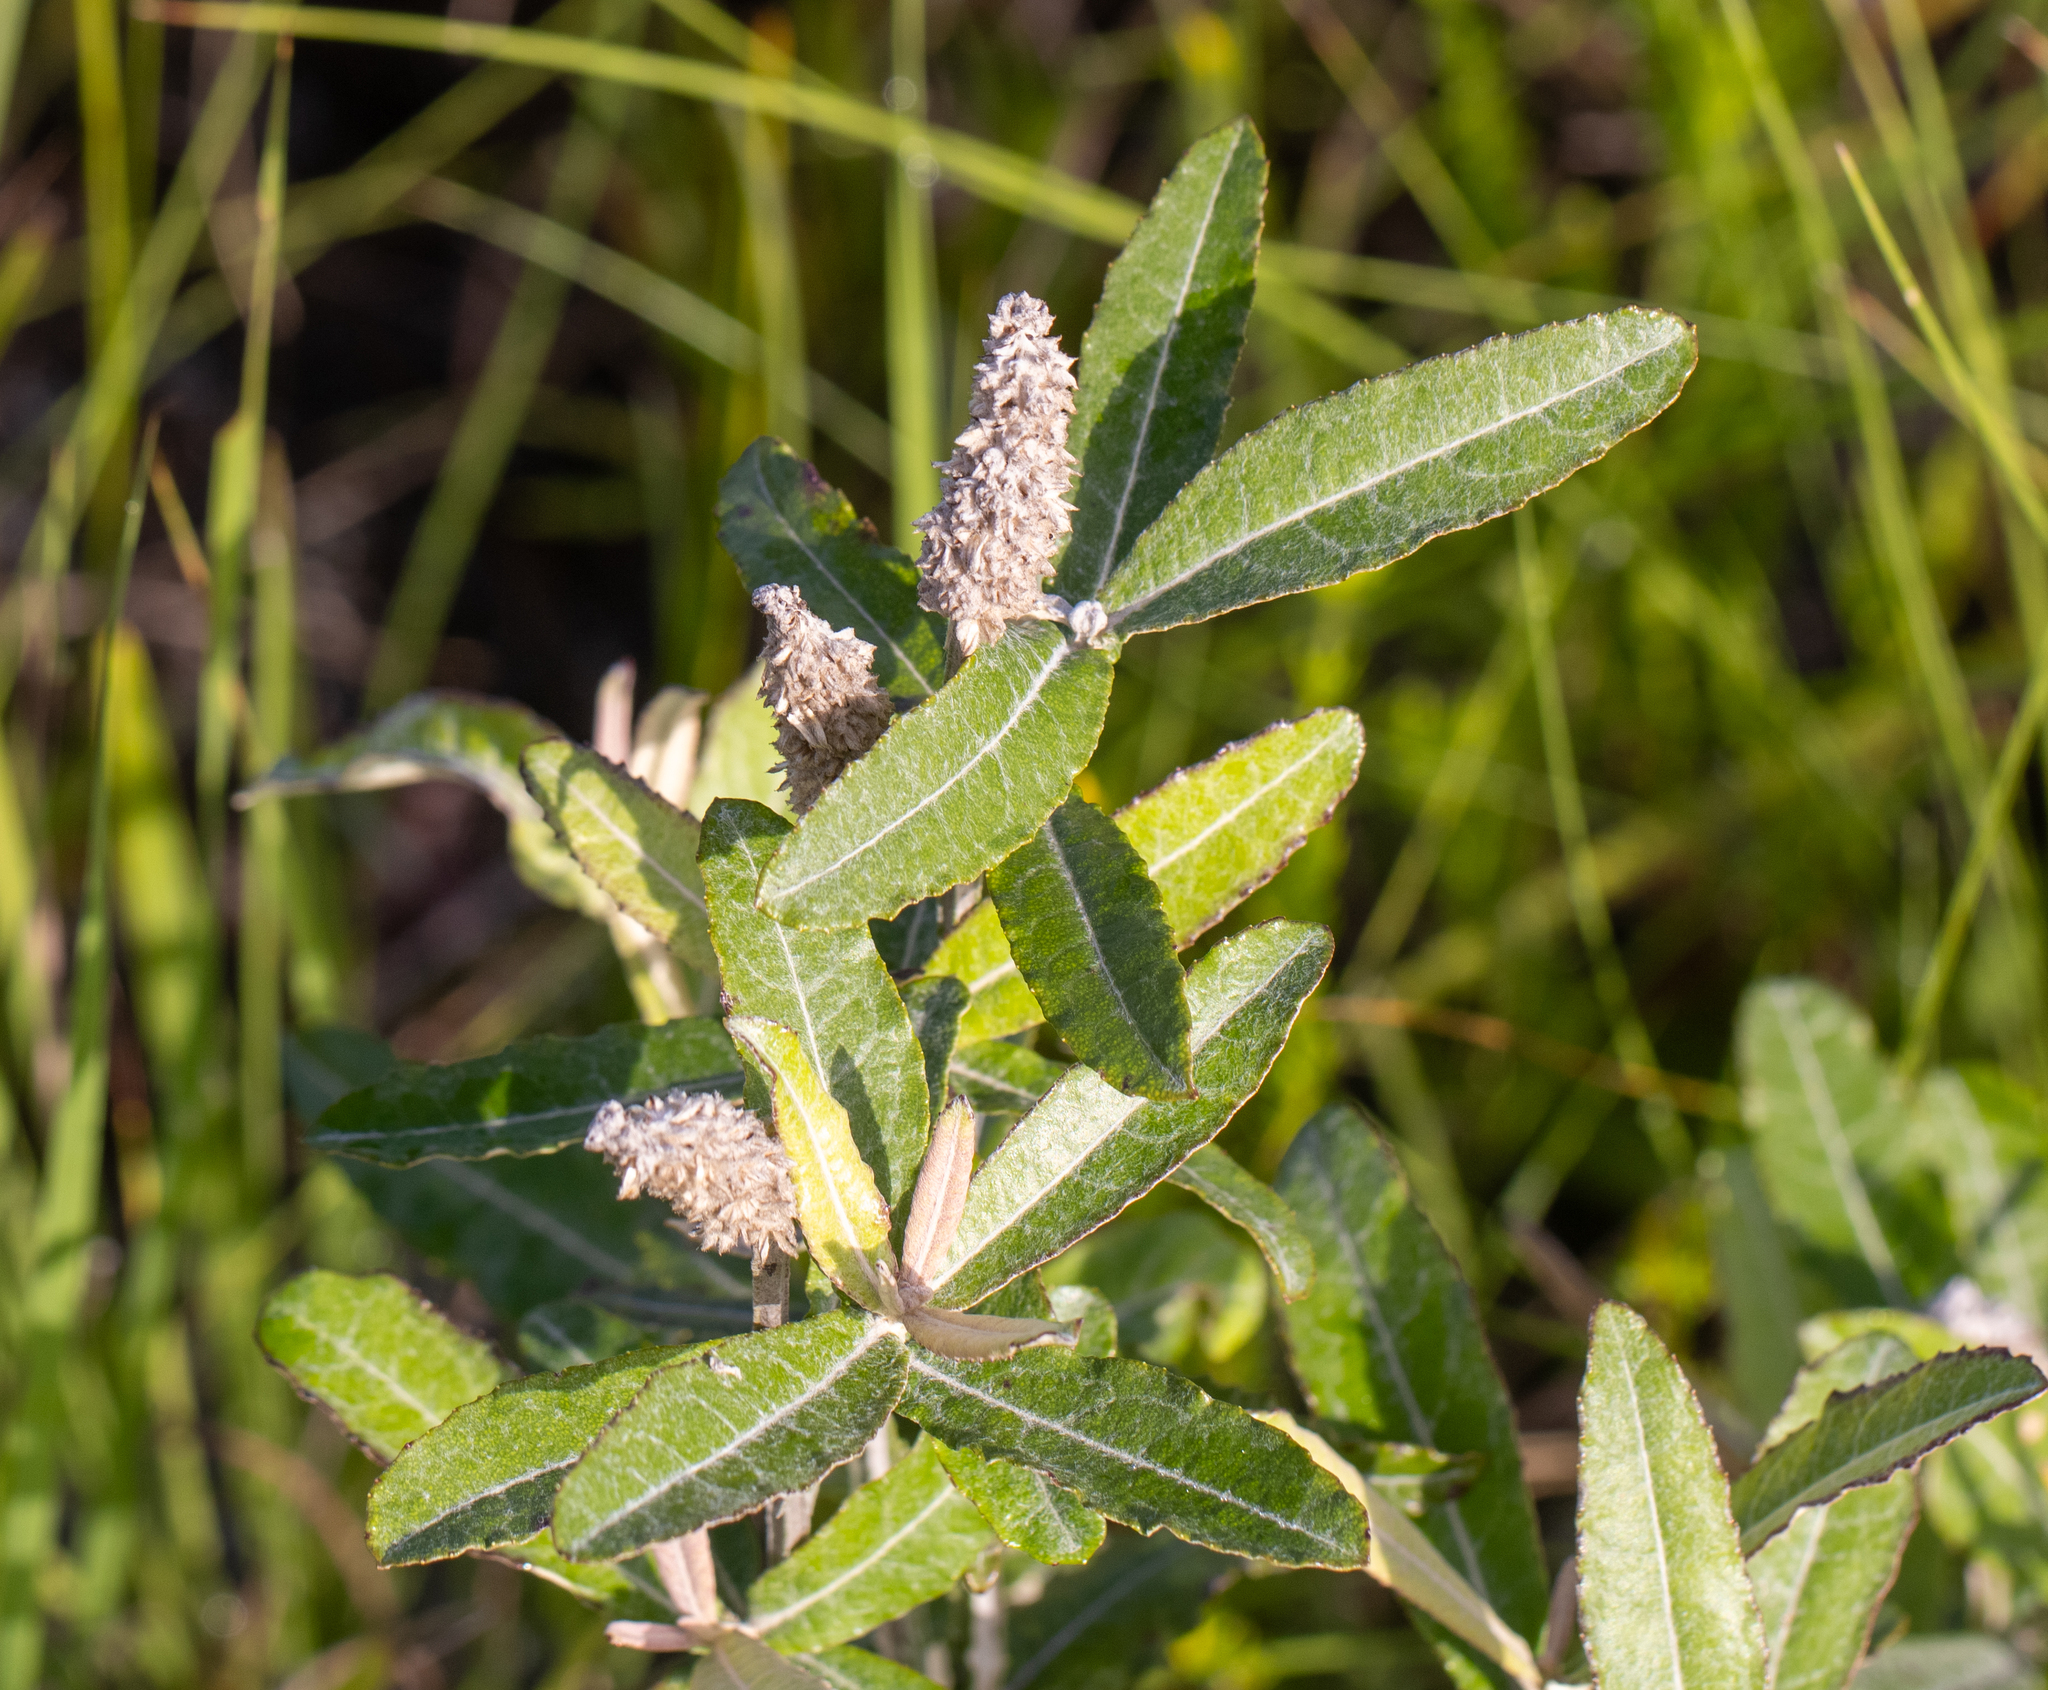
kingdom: Plantae
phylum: Tracheophyta
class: Magnoliopsida
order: Asterales
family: Asteraceae
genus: Pterocaulon
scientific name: Pterocaulon pycnostachyum
